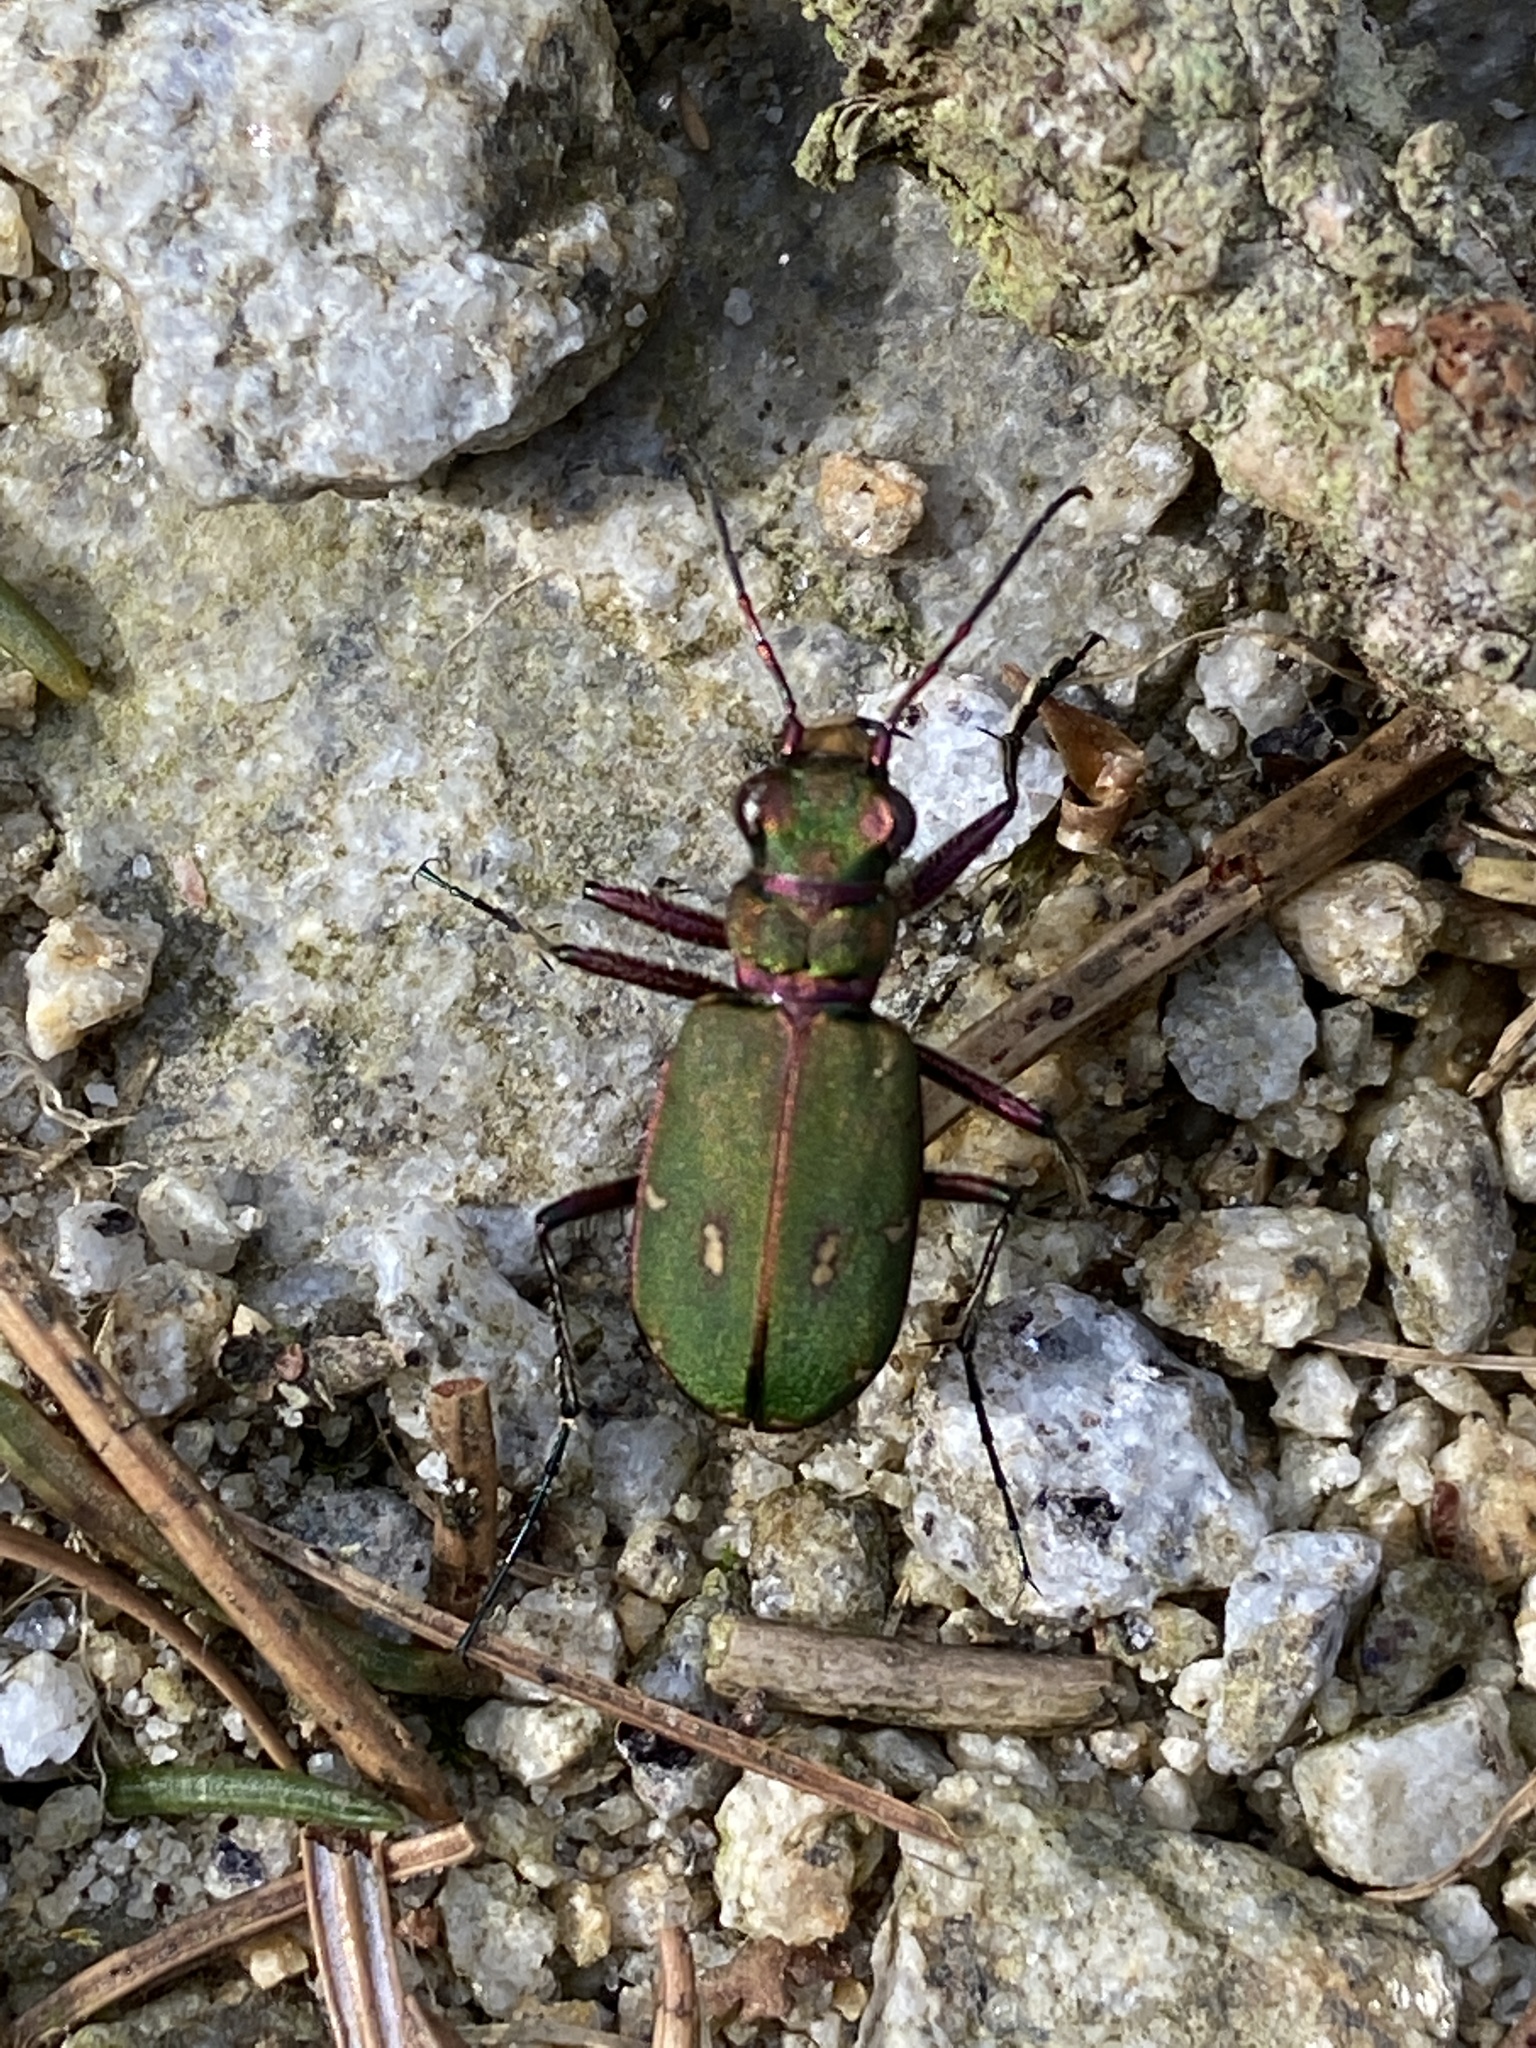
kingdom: Animalia
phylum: Arthropoda
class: Insecta
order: Coleoptera
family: Carabidae
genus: Cicindela
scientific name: Cicindela campestris
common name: Common tiger beetle
